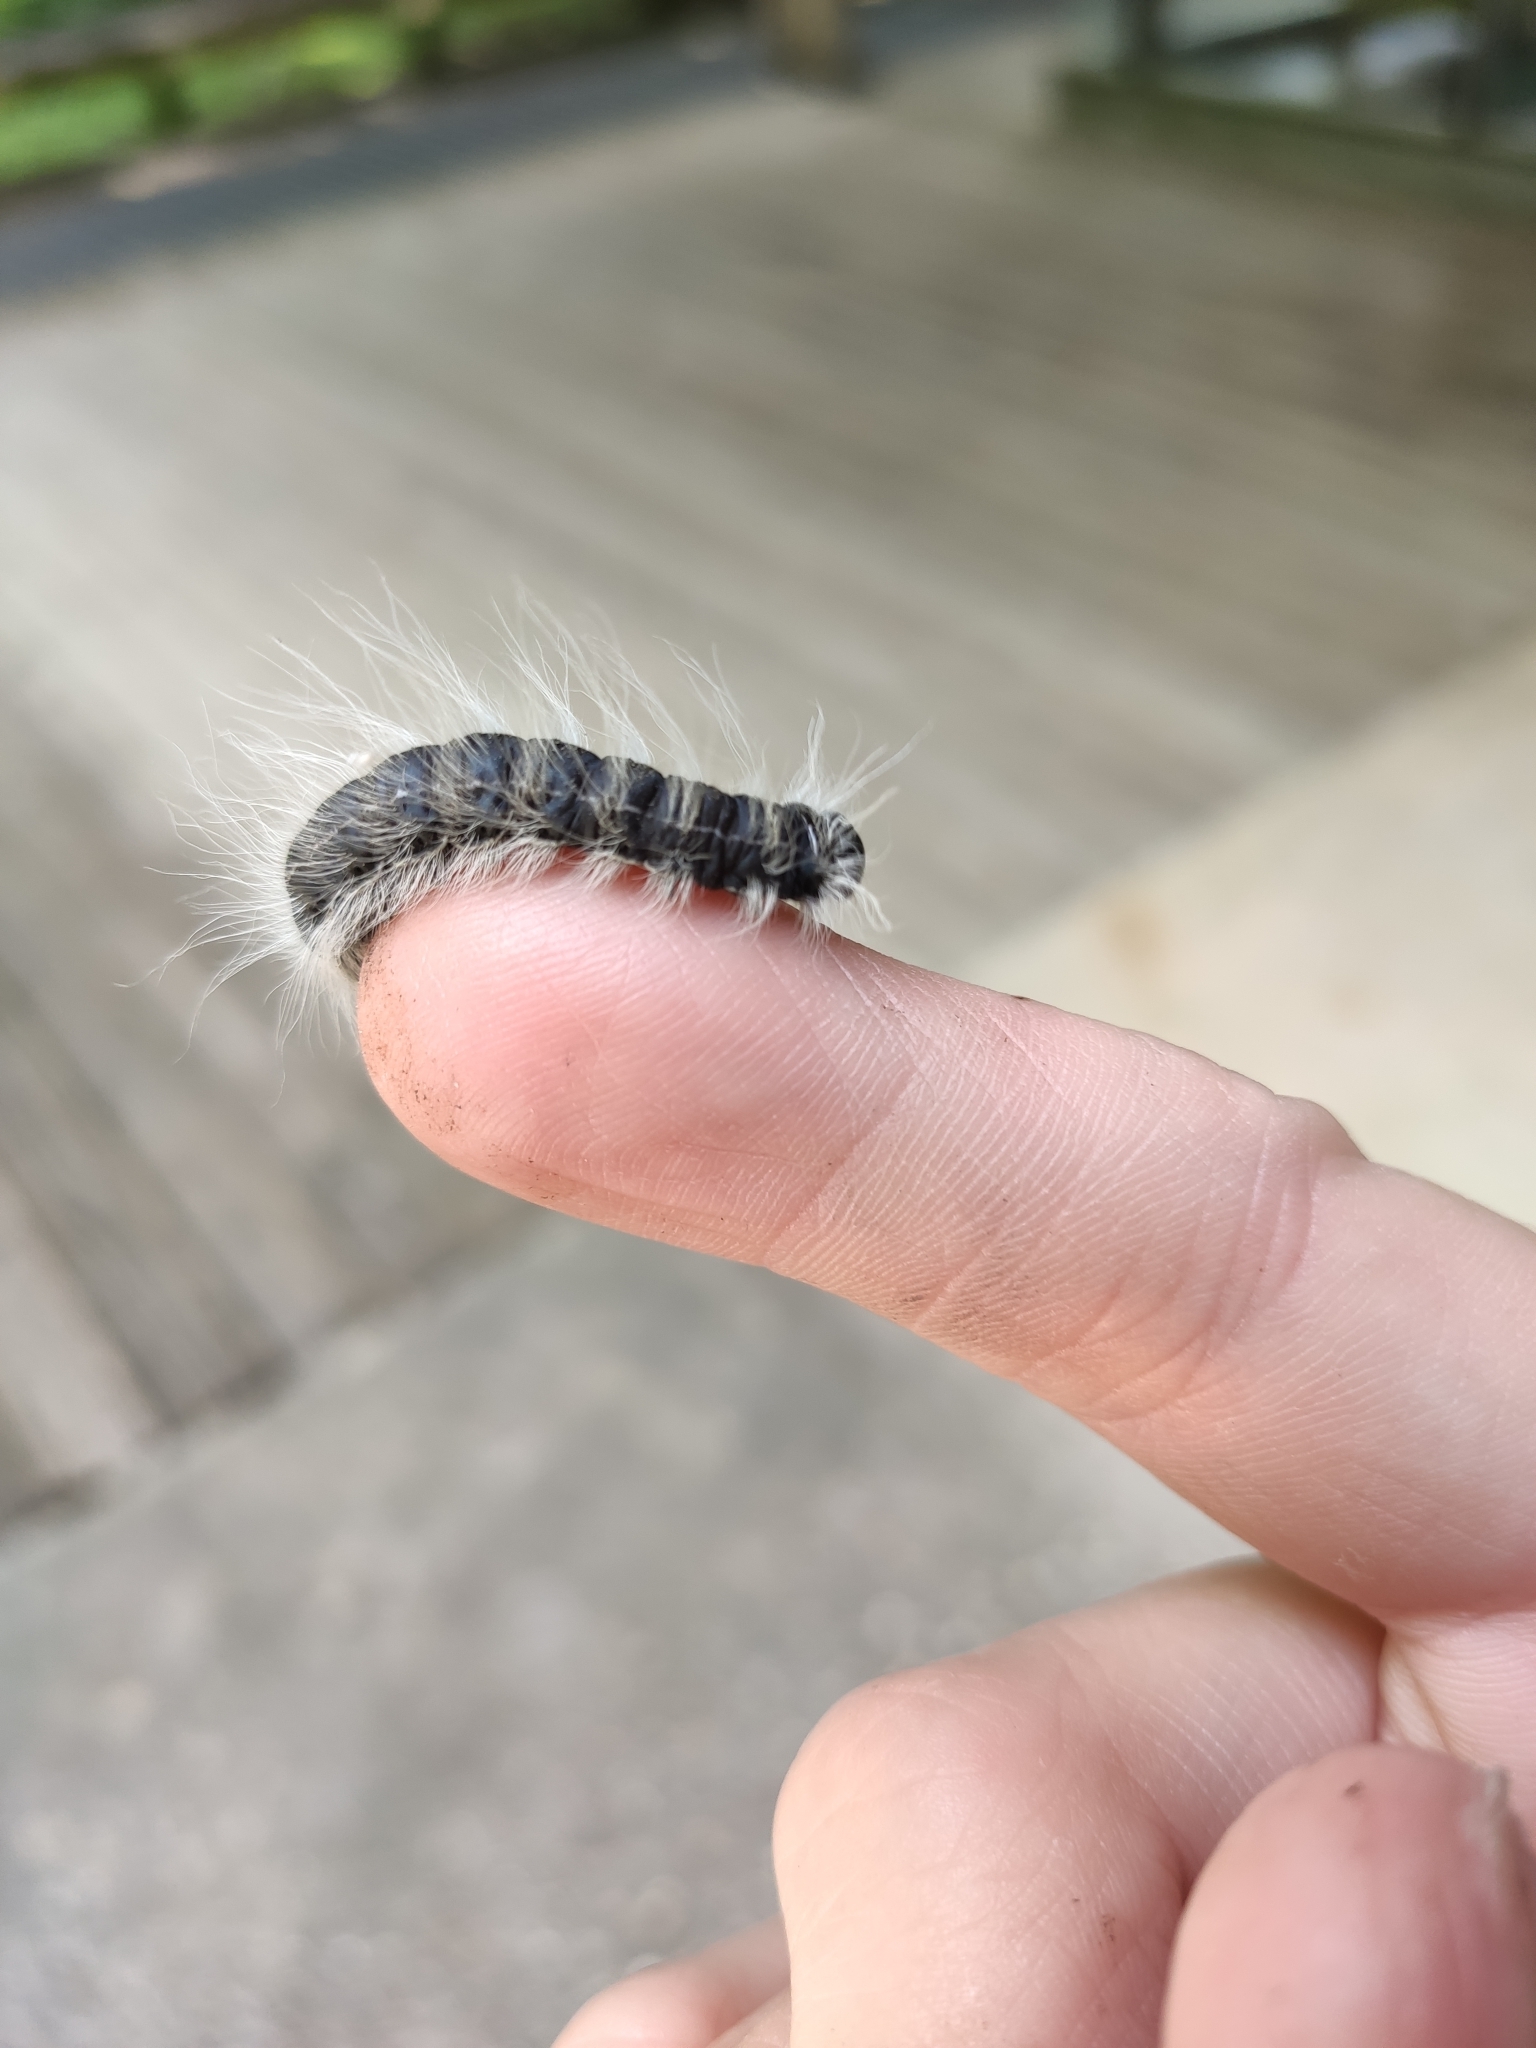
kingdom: Animalia
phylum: Arthropoda
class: Insecta
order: Lepidoptera
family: Notodontidae
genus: Datana
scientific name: Datana integerrima
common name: Walnut caterpillar
